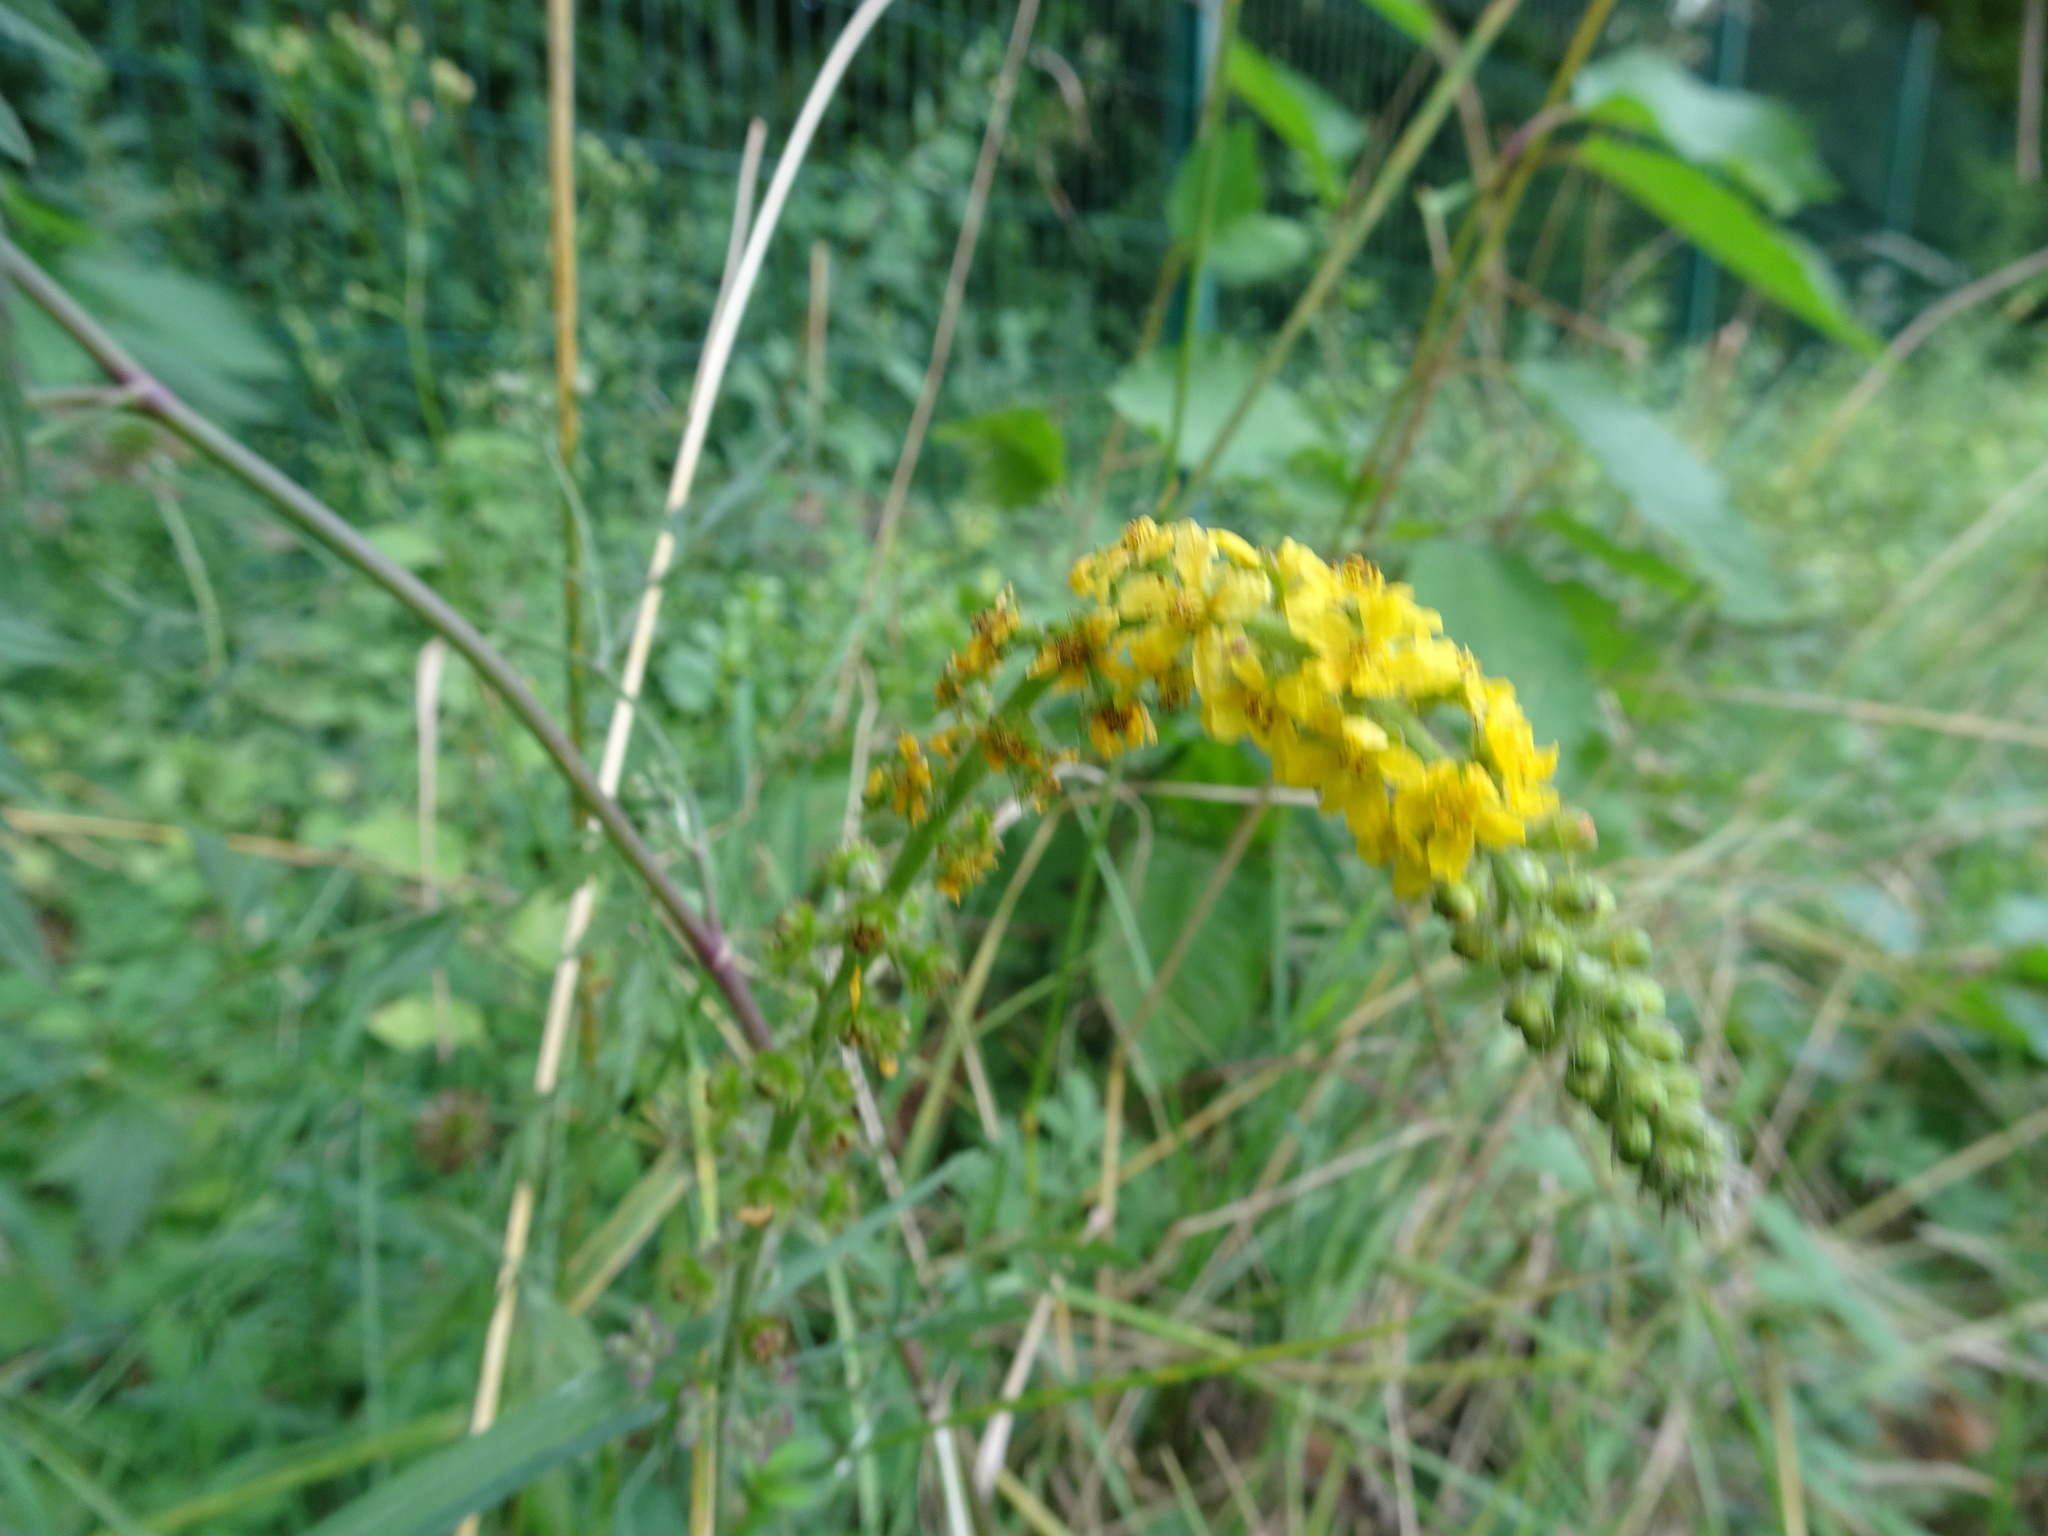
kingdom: Plantae
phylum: Tracheophyta
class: Magnoliopsida
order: Rosales
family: Rosaceae
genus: Agrimonia
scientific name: Agrimonia eupatoria
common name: Agrimony
